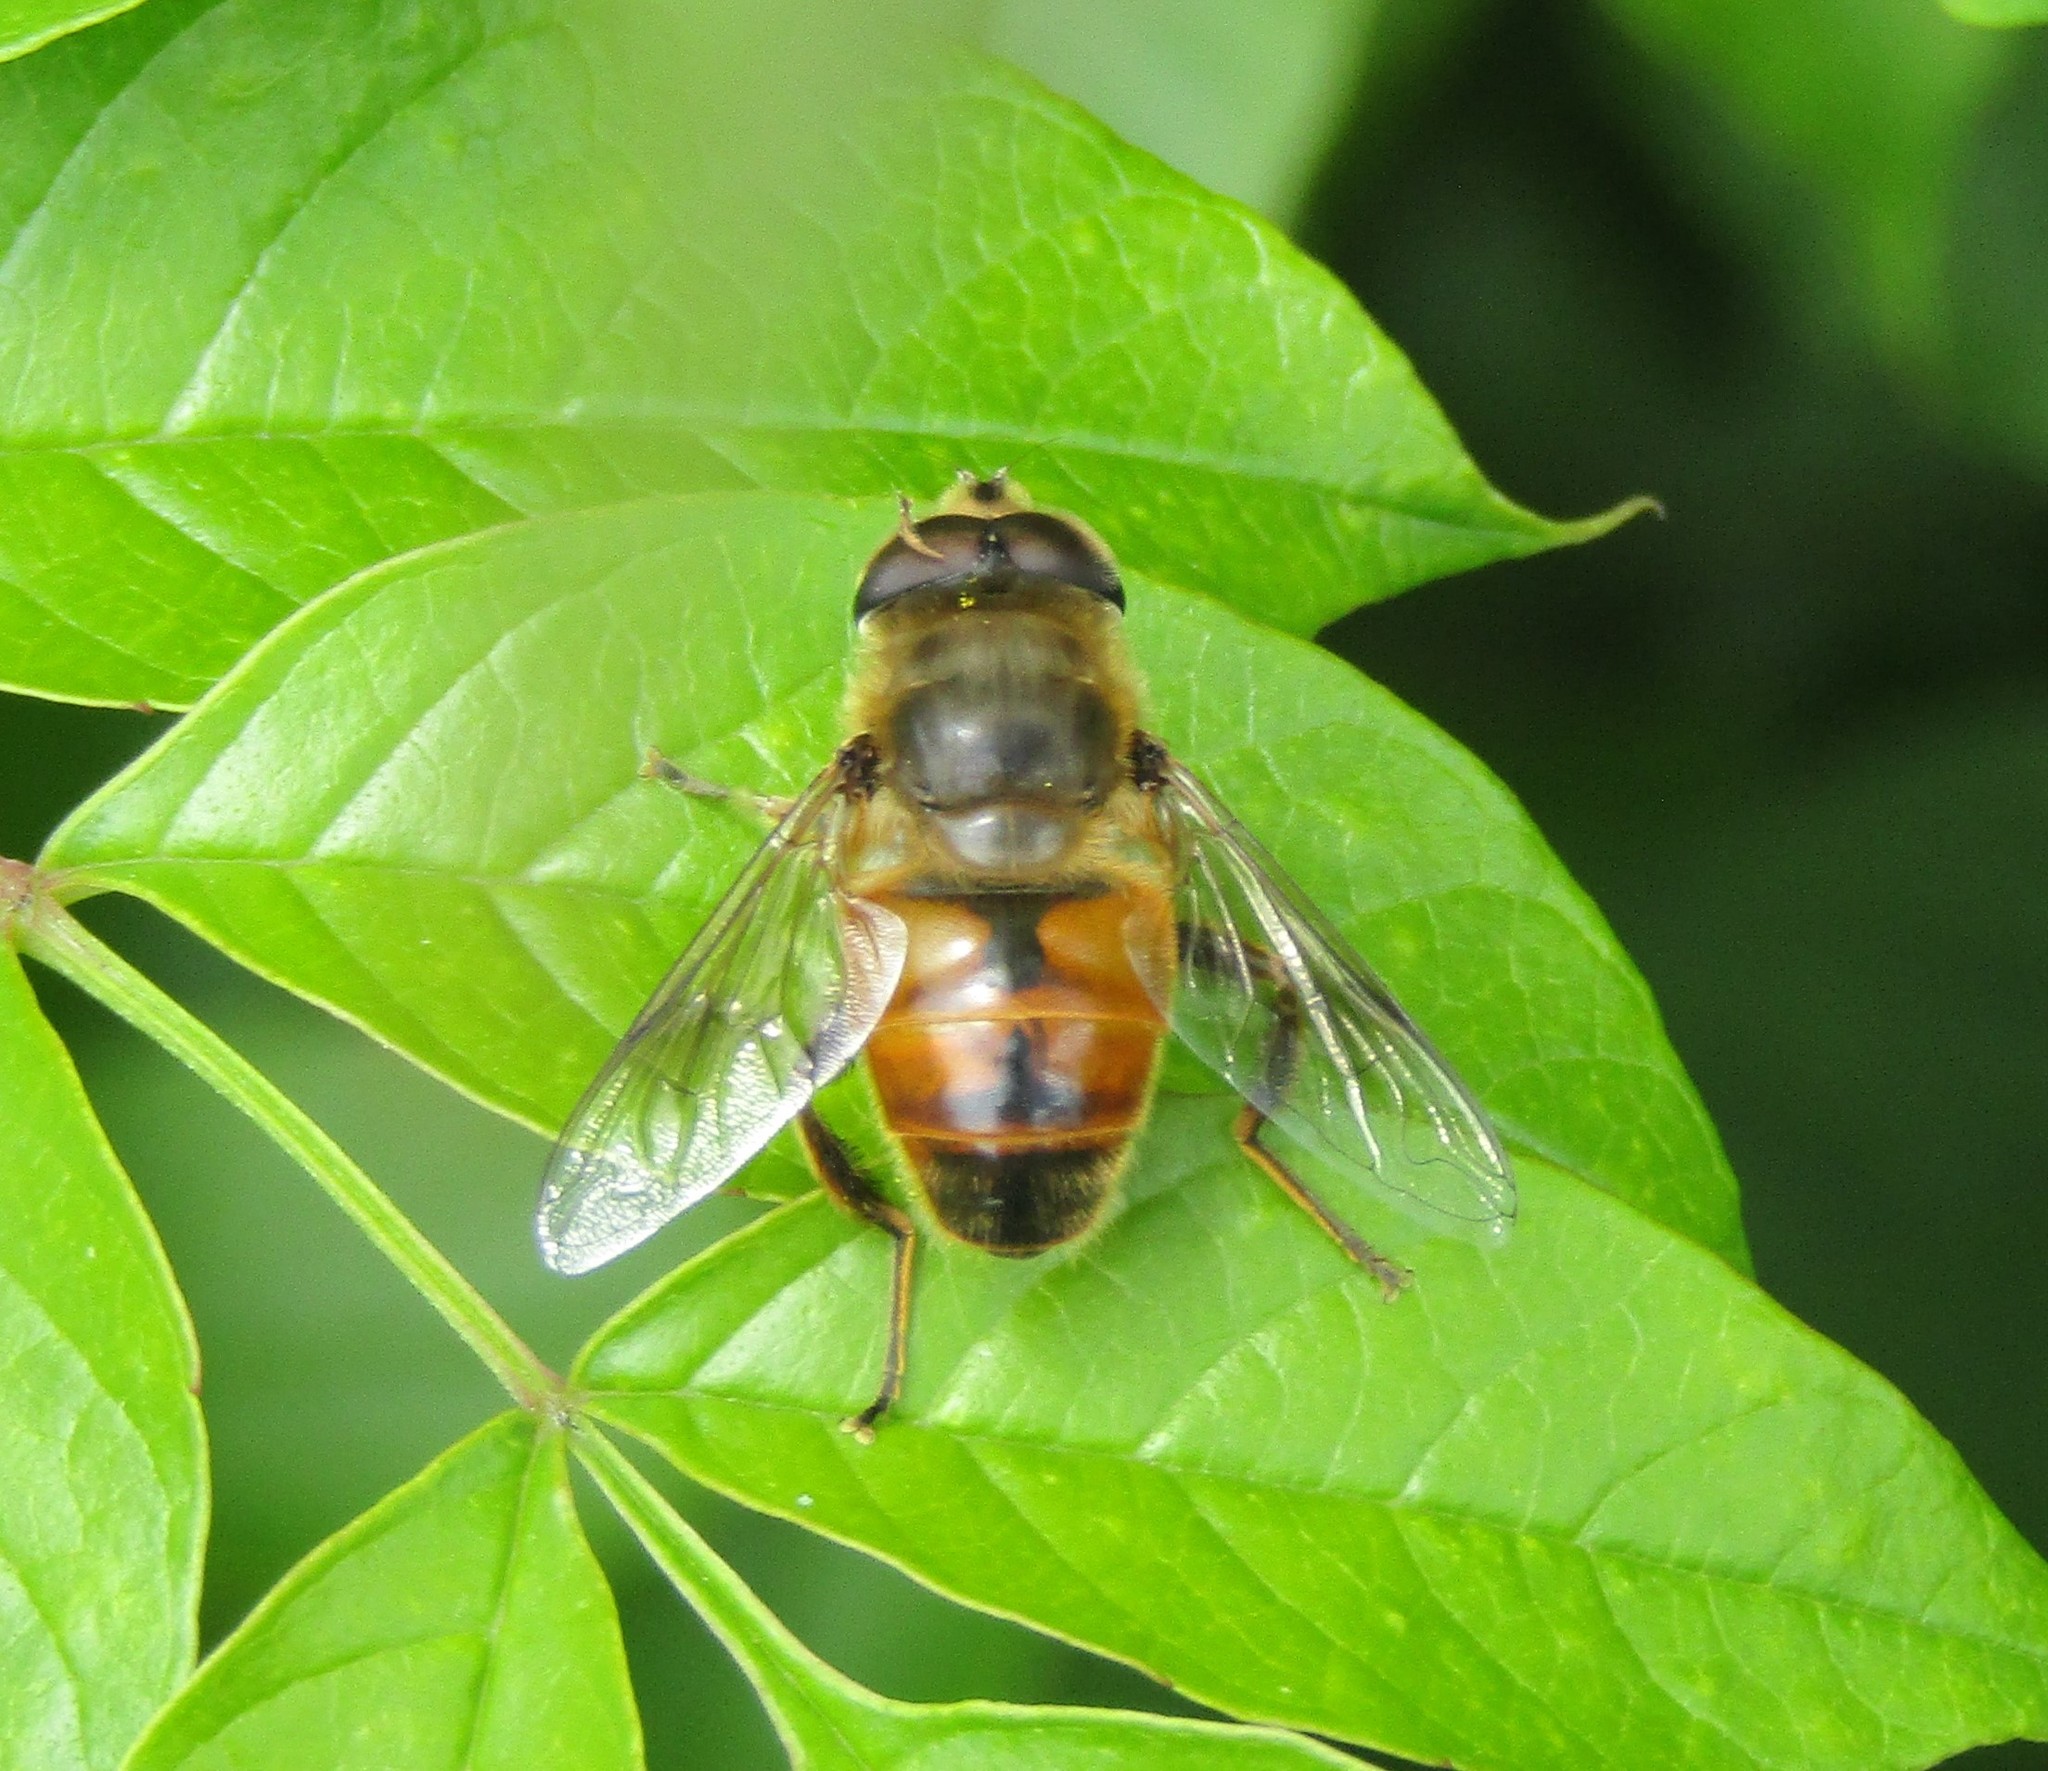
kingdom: Animalia
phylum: Arthropoda
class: Insecta
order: Diptera
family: Syrphidae
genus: Eristalis
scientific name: Eristalis tenax
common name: Drone fly
